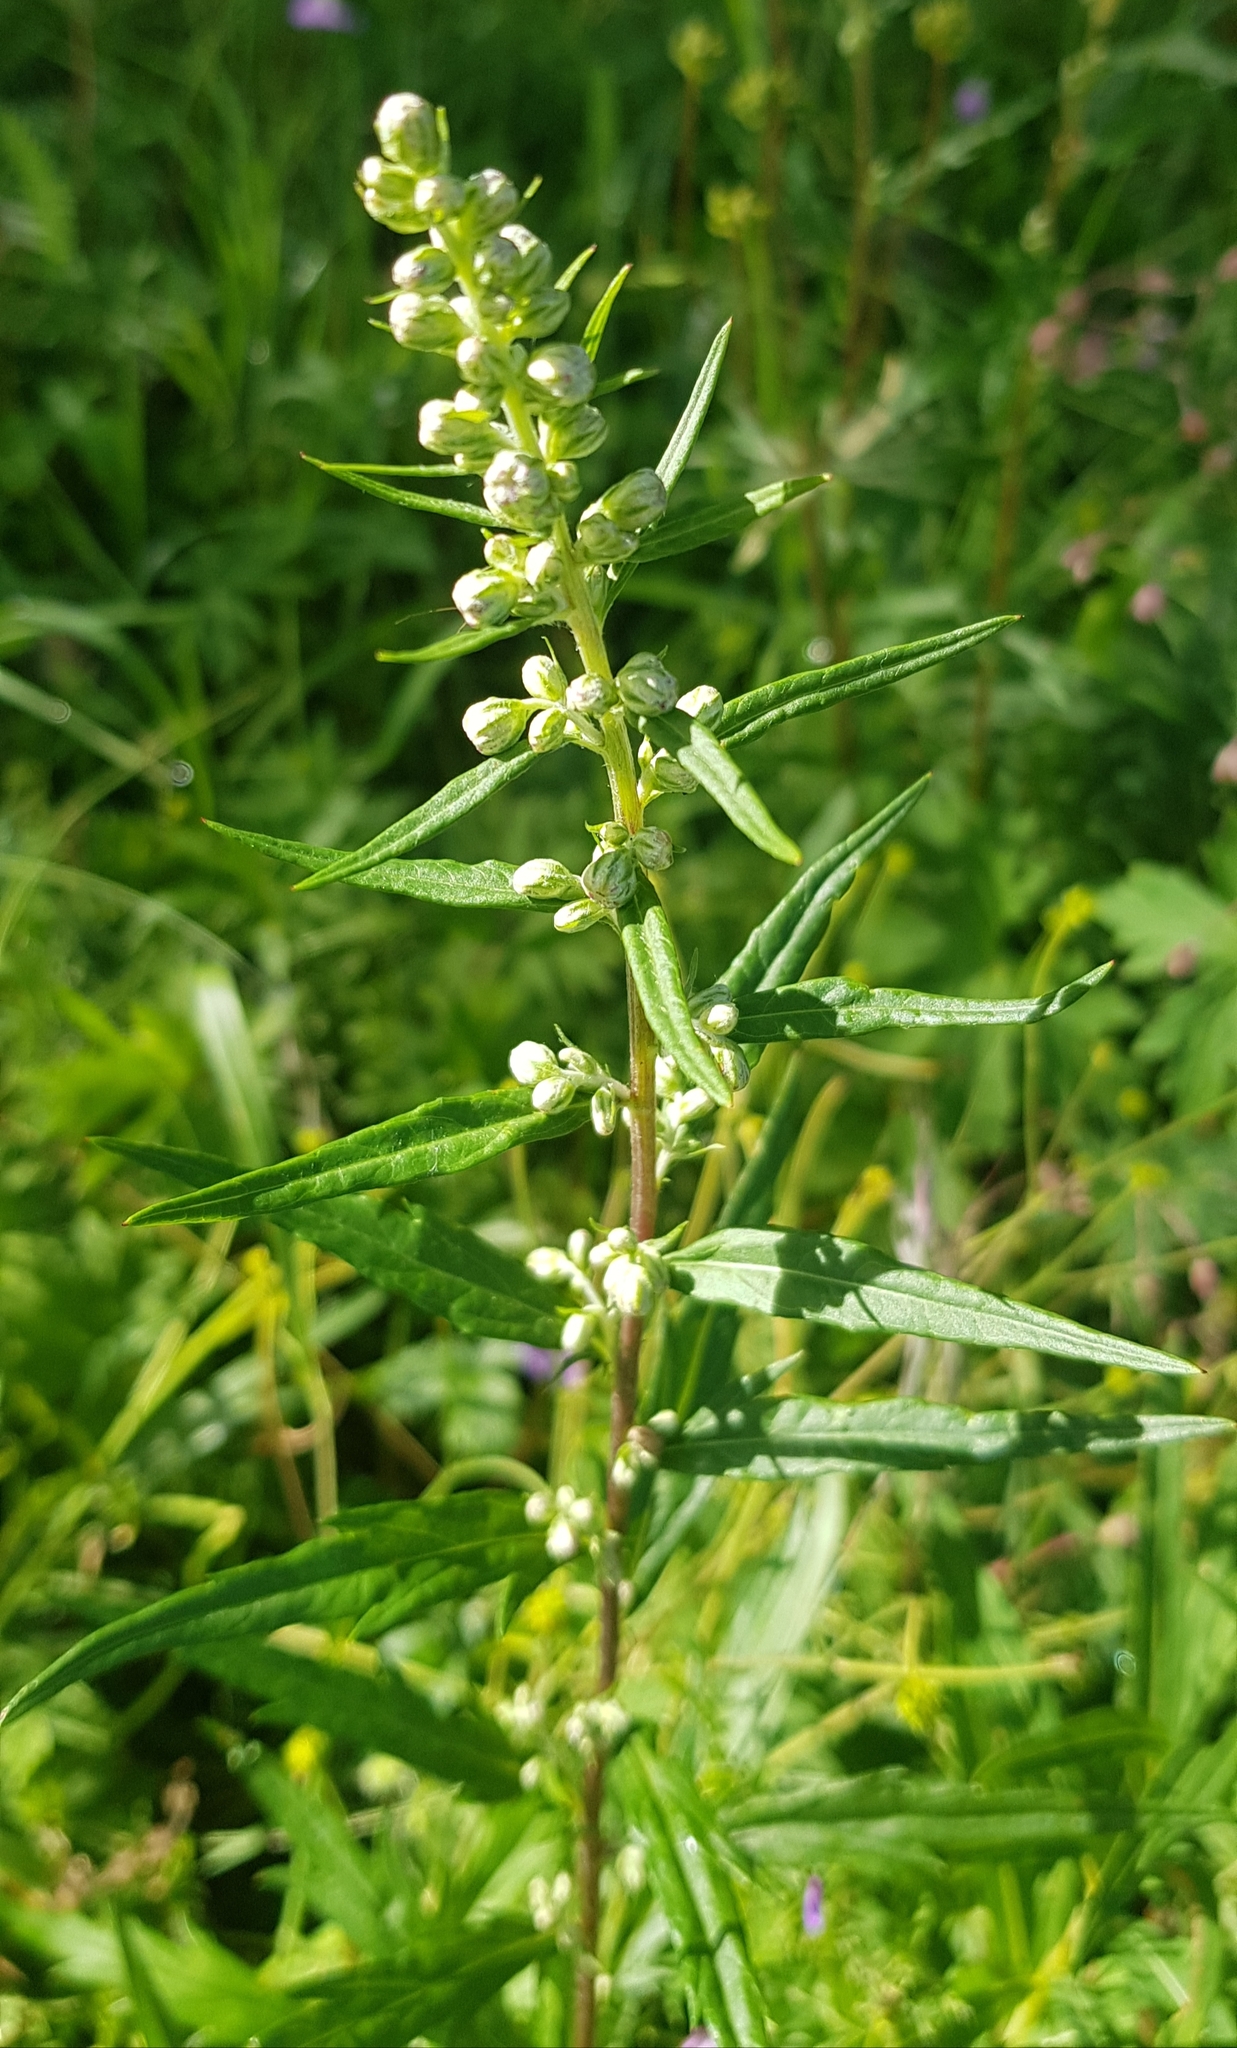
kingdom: Plantae
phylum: Tracheophyta
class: Magnoliopsida
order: Asterales
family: Asteraceae
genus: Artemisia
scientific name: Artemisia vulgaris
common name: Mugwort
